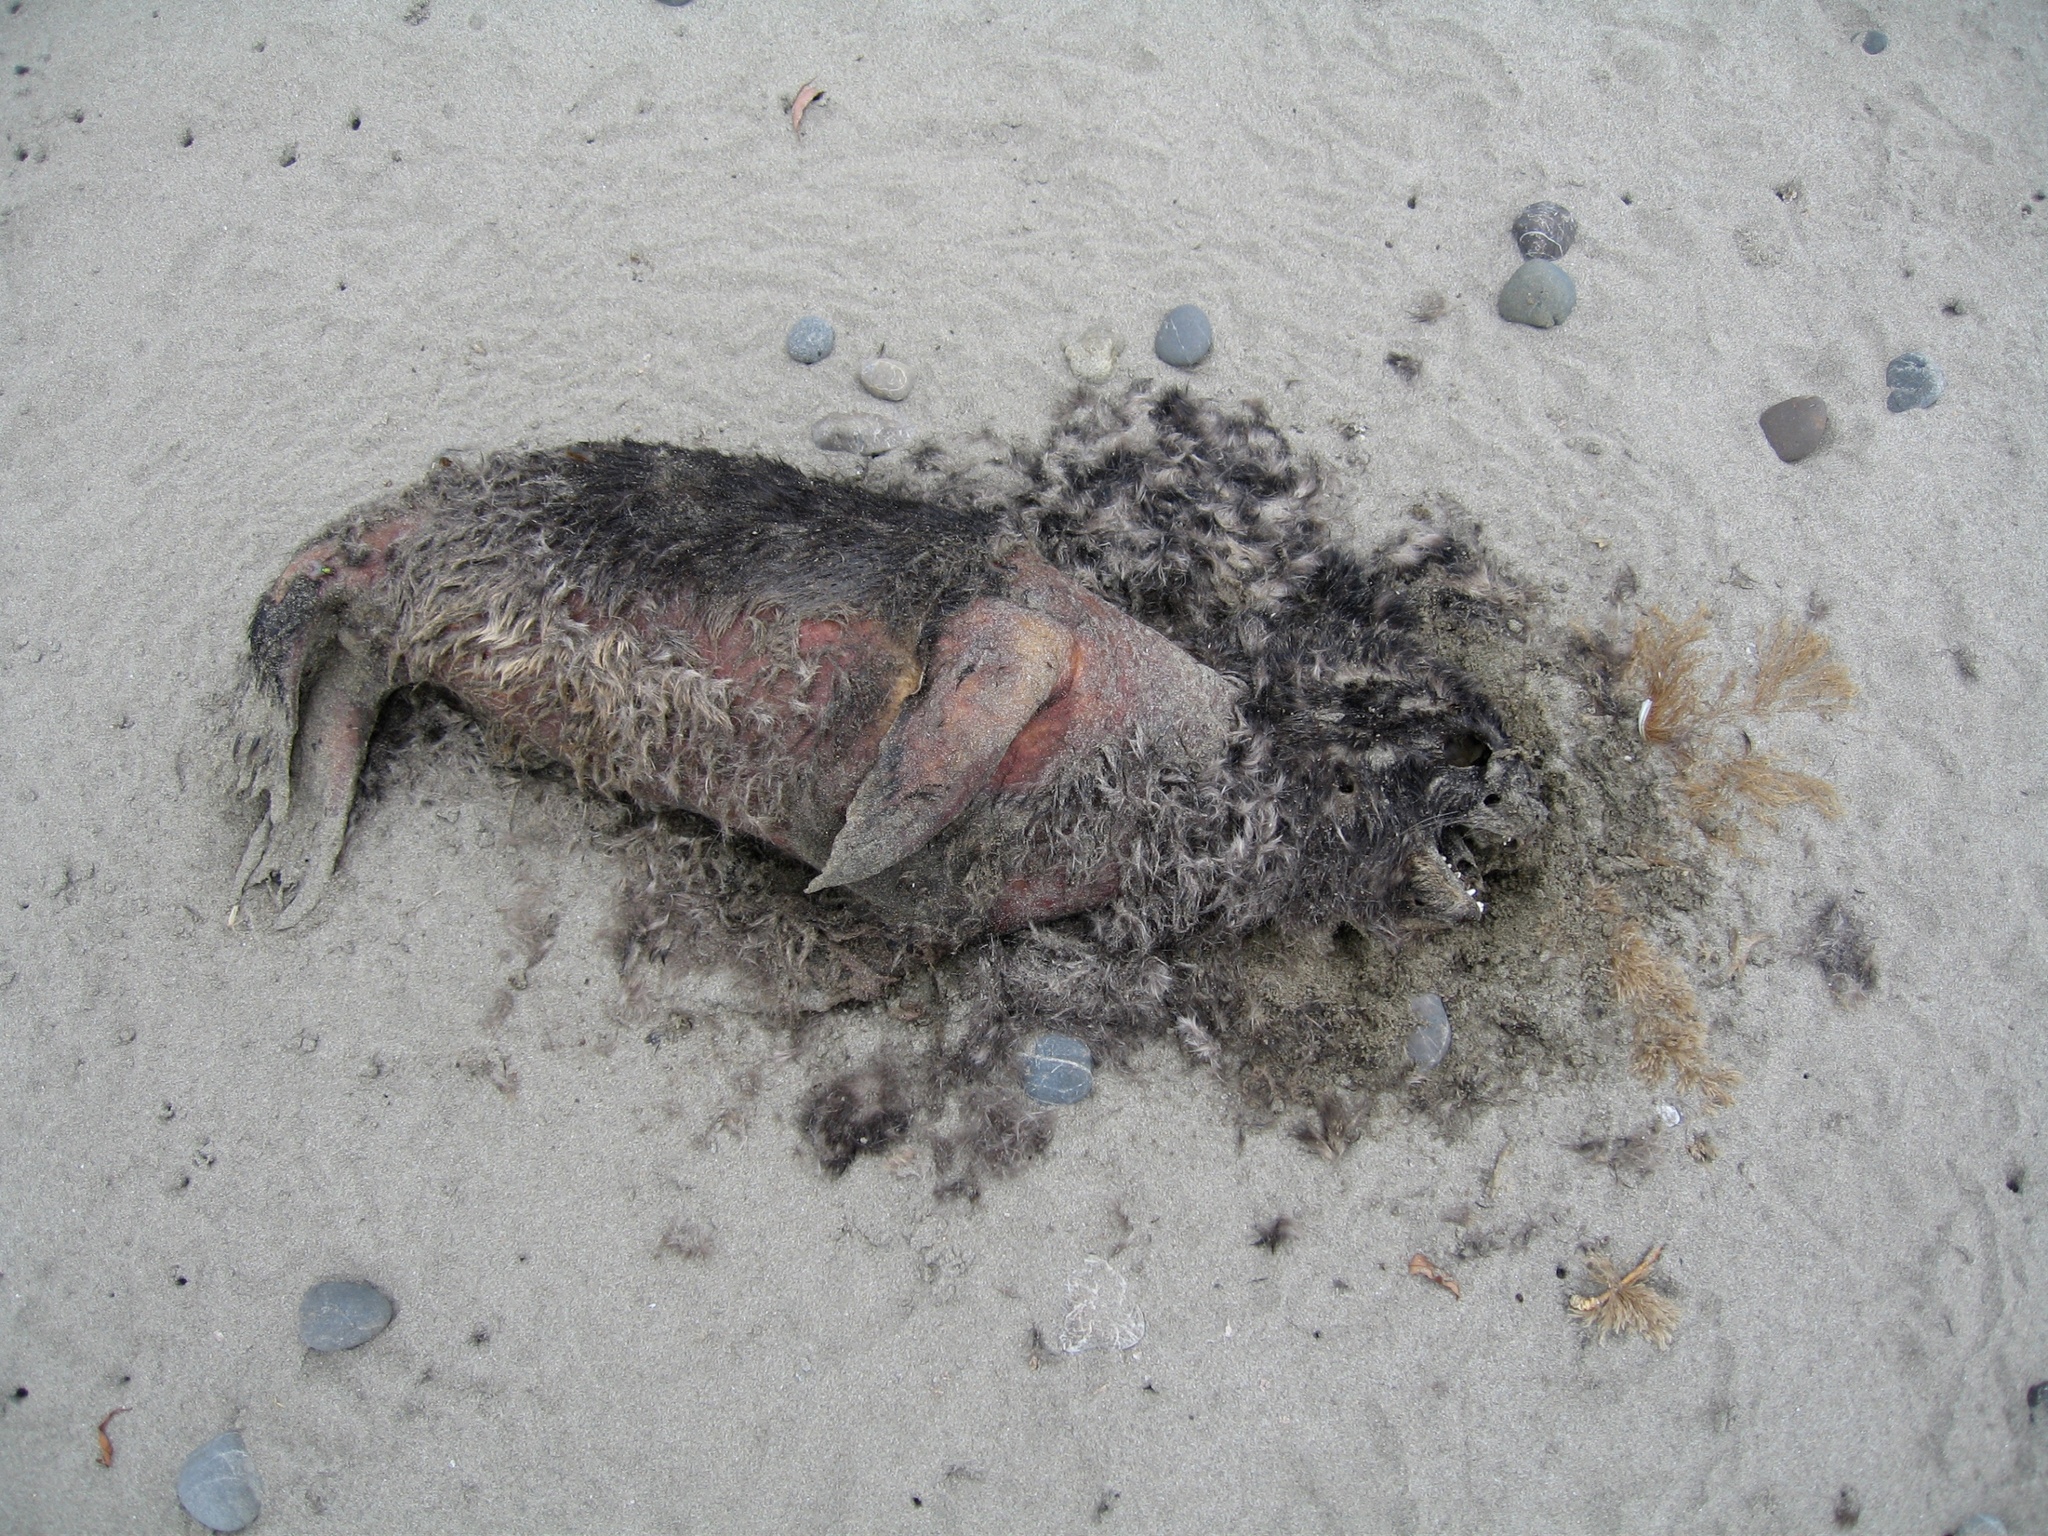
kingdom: Animalia
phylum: Chordata
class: Mammalia
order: Carnivora
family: Otariidae
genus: Arctocephalus
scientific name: Arctocephalus forsteri
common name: New zealand fur seal
